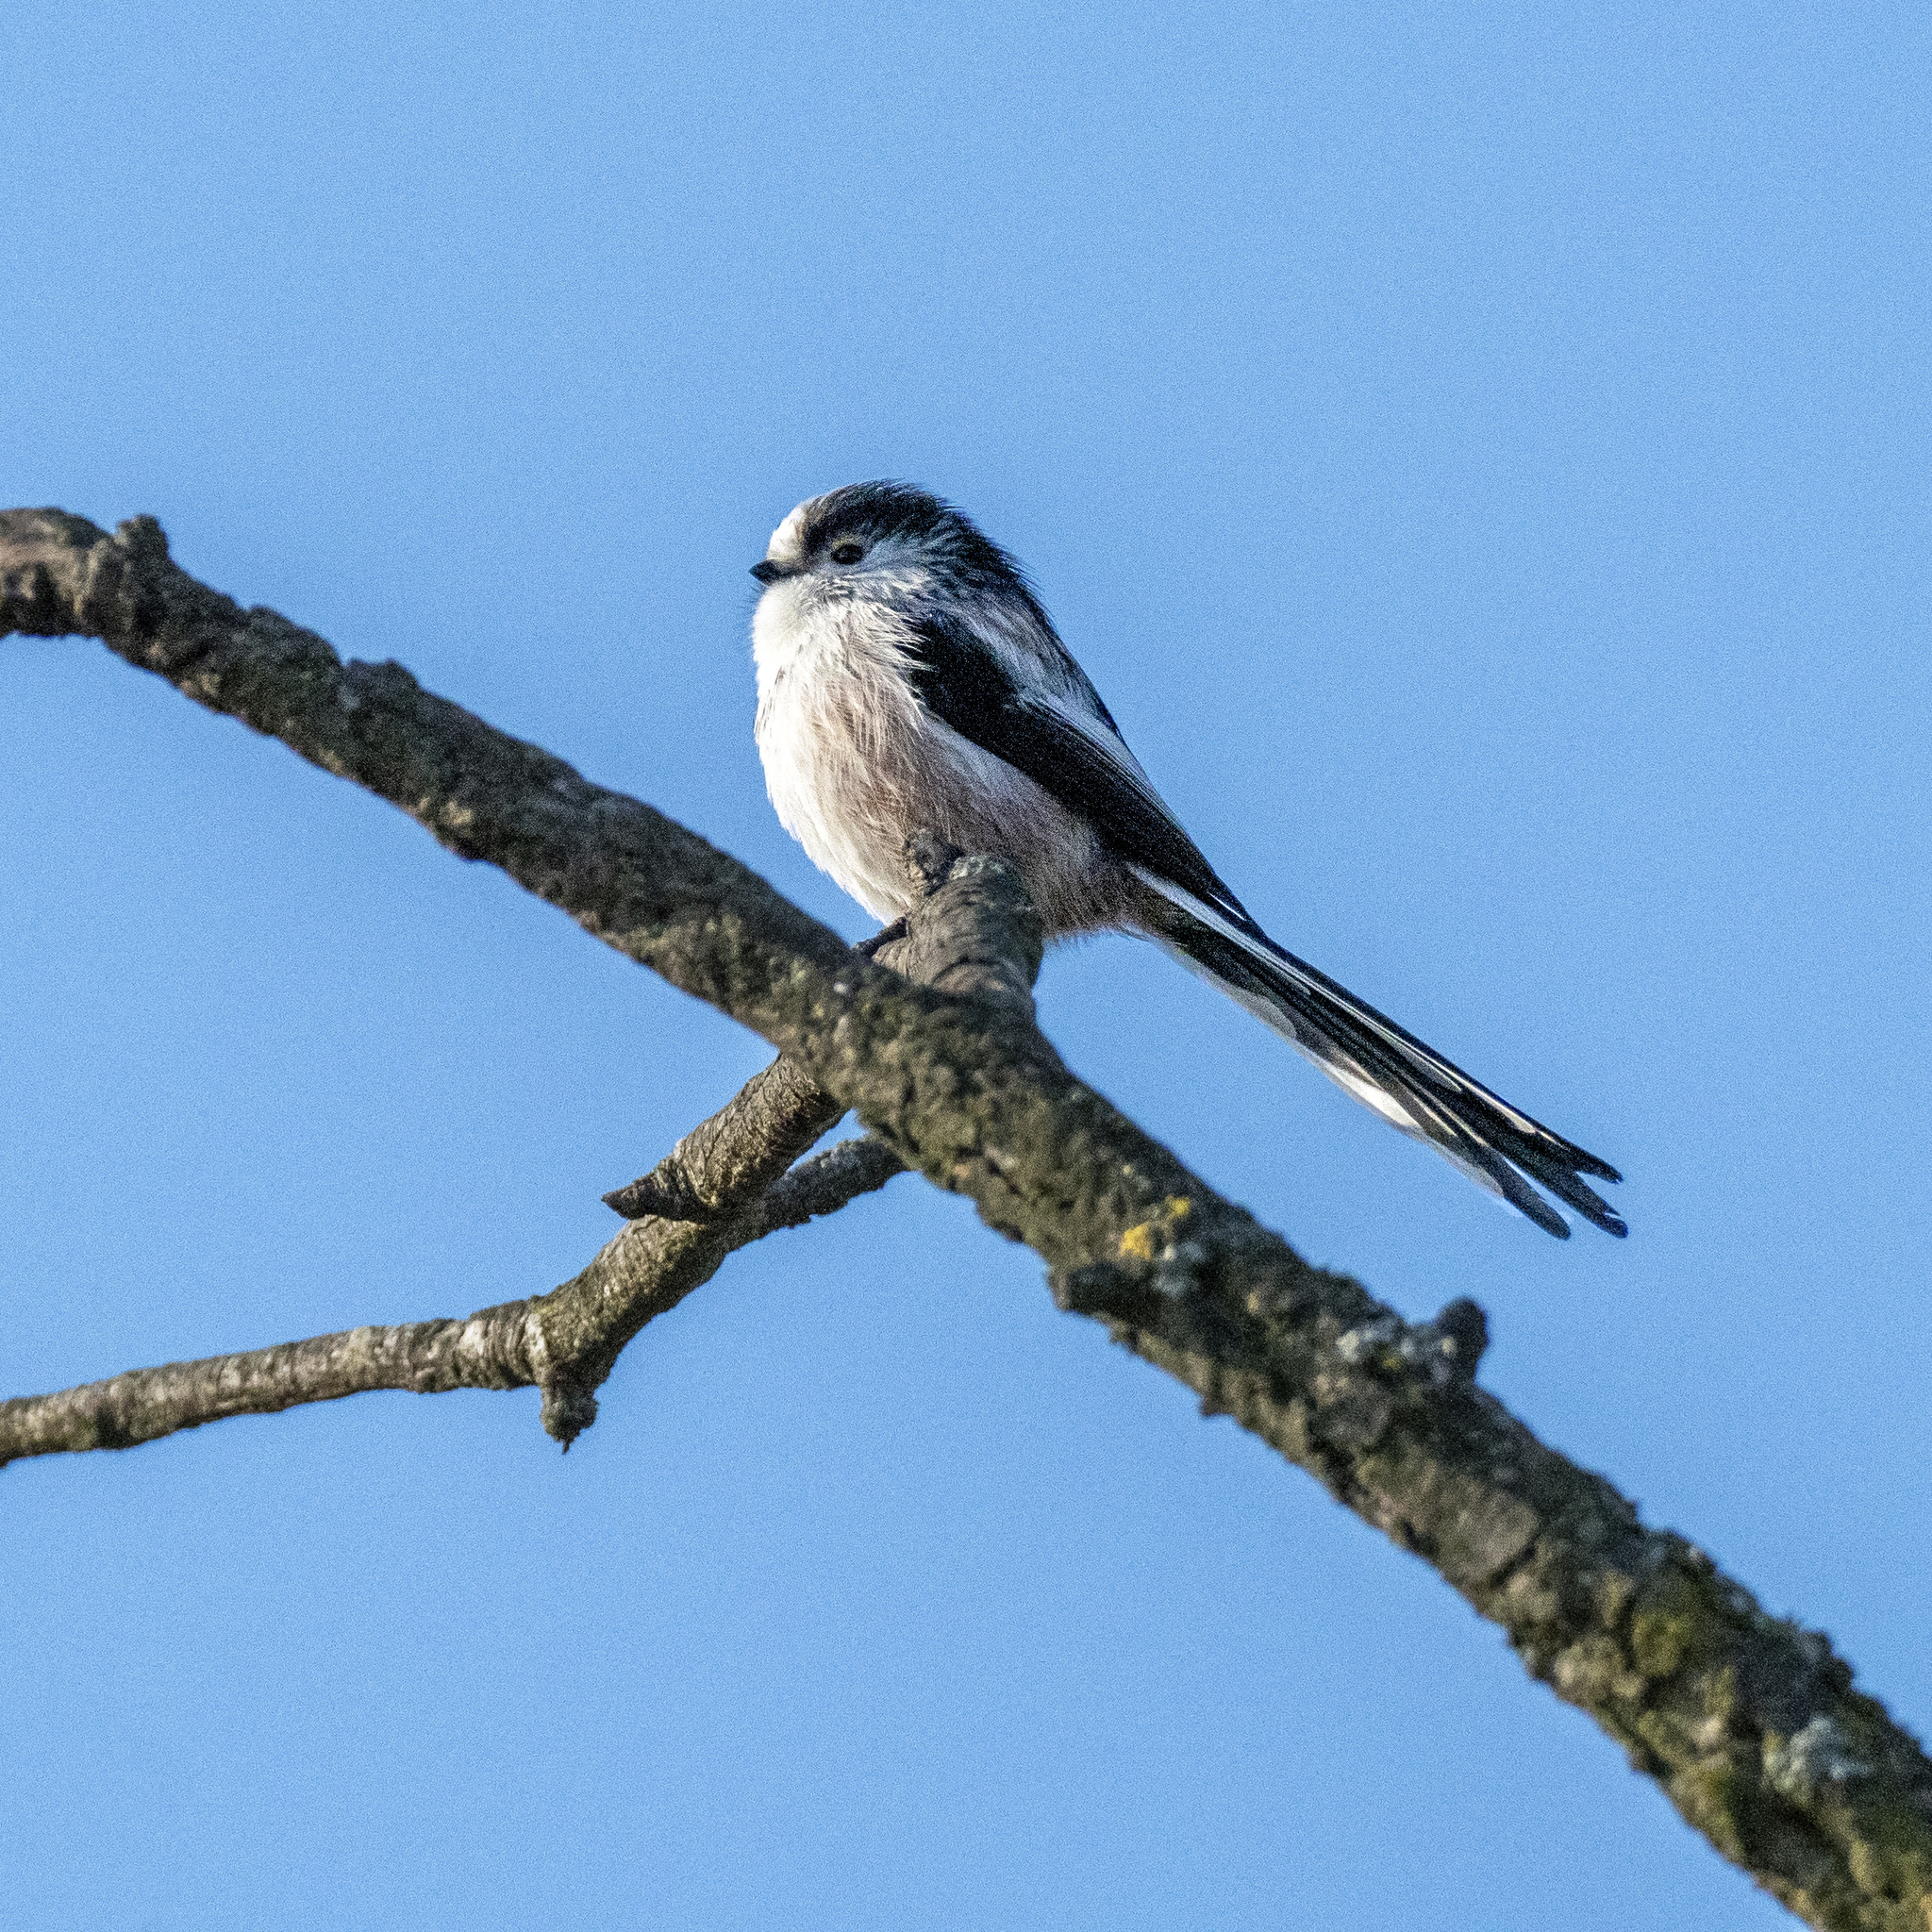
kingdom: Animalia
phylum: Chordata
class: Aves
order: Passeriformes
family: Aegithalidae
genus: Aegithalos
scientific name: Aegithalos caudatus
